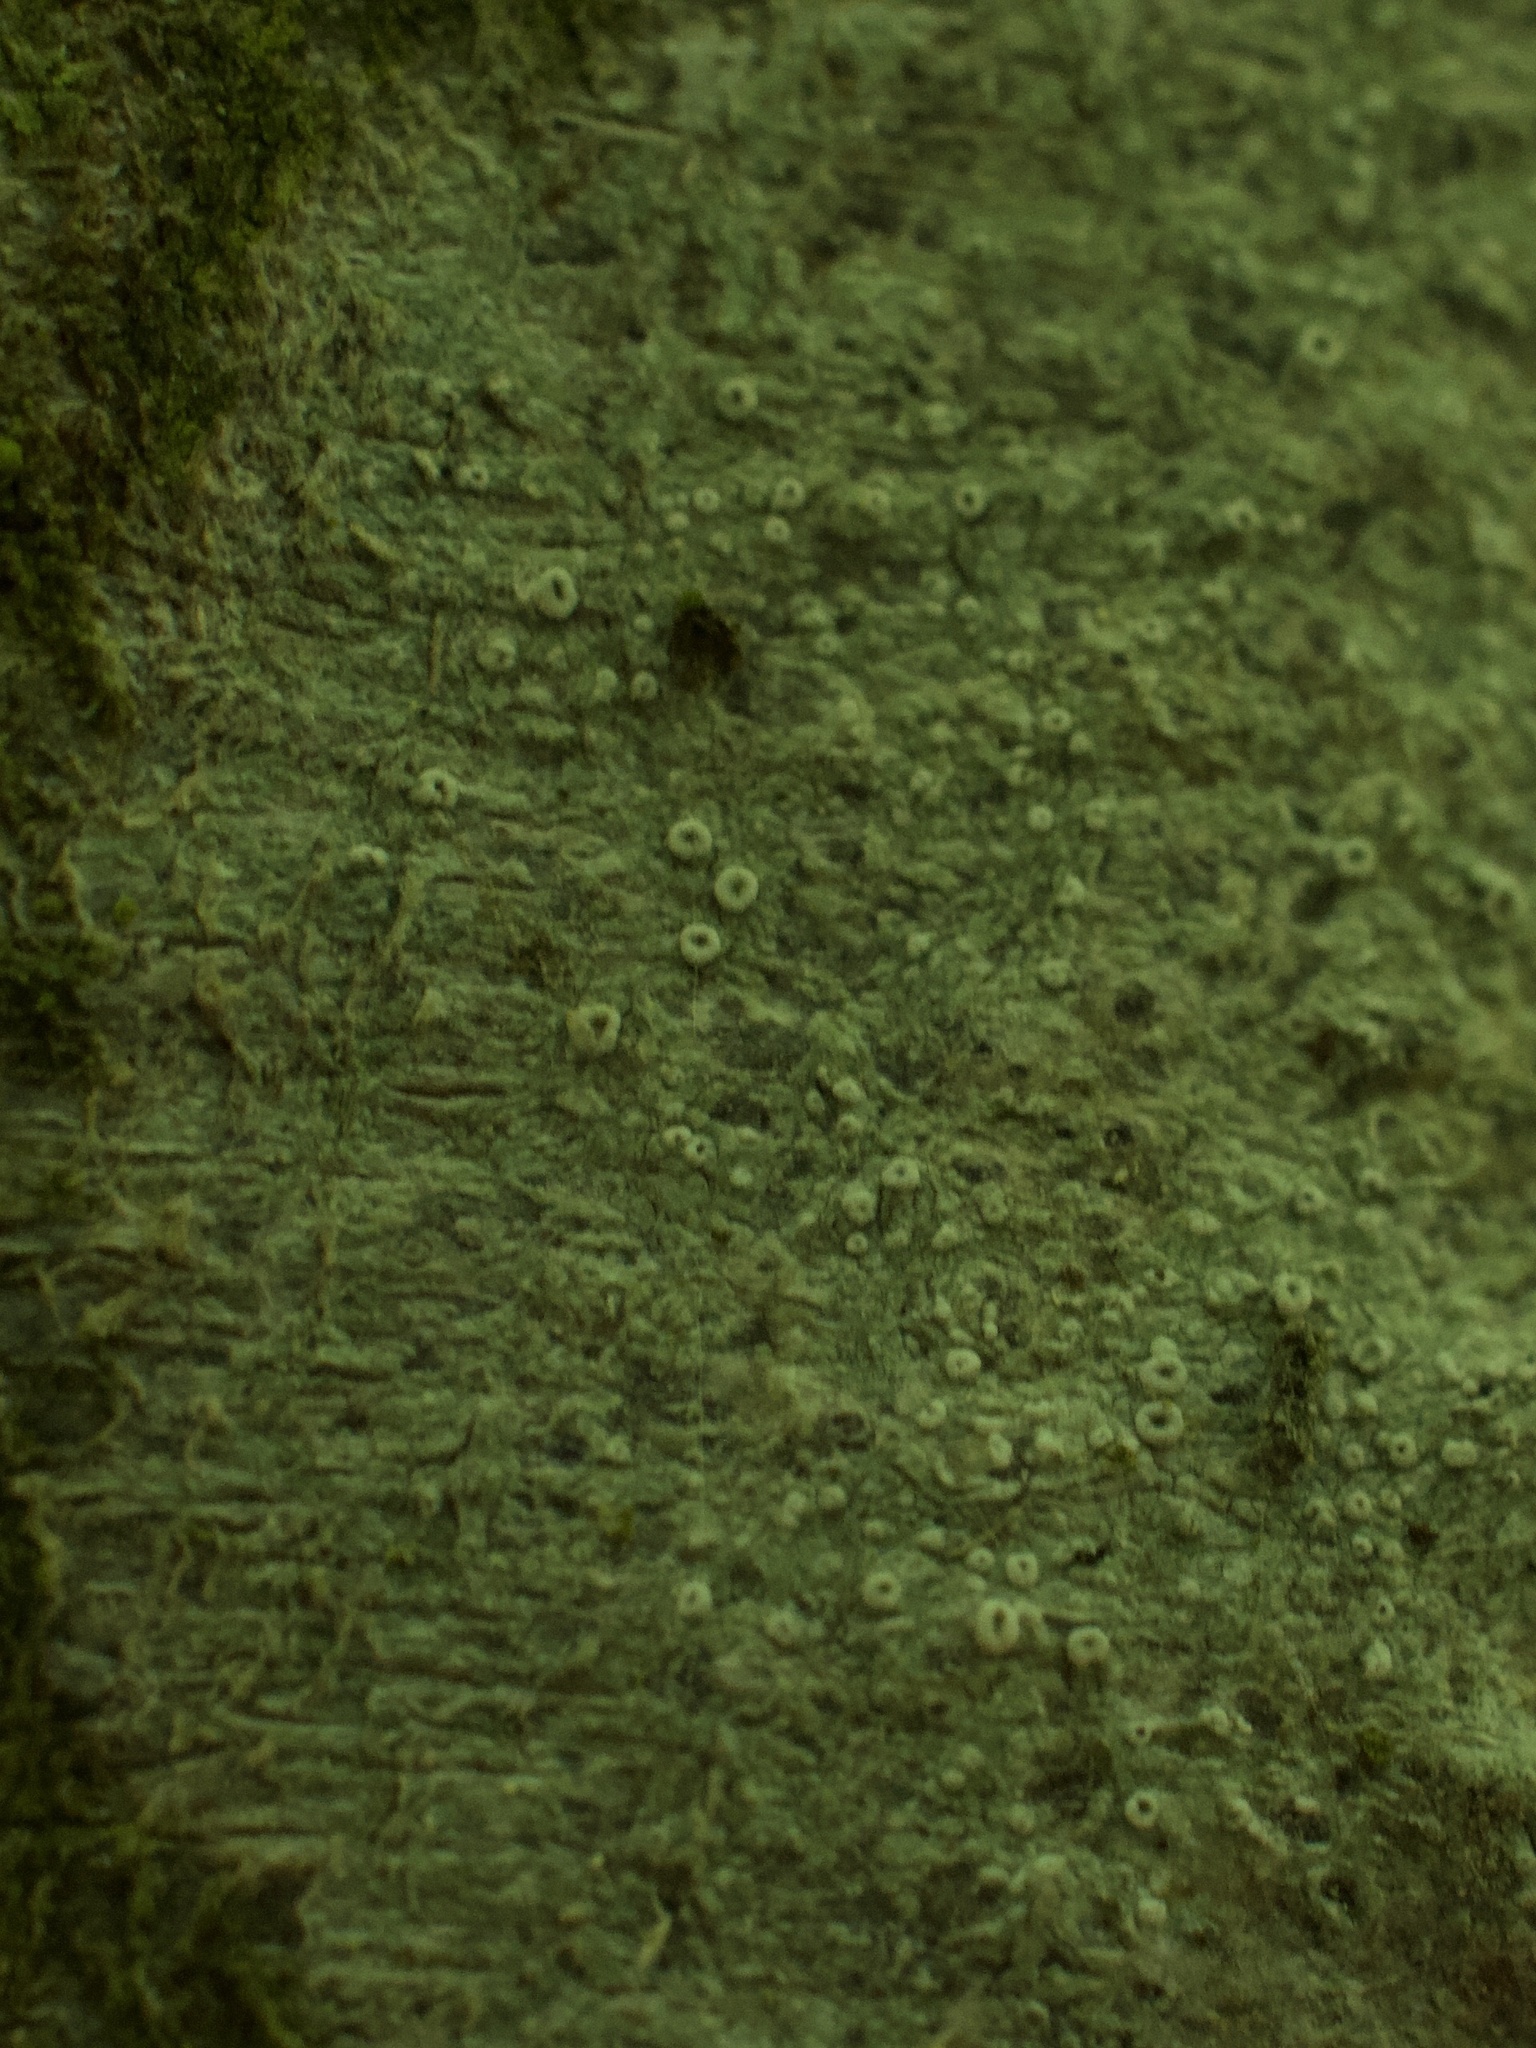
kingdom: Fungi
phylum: Ascomycota
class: Lecanoromycetes
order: Lecanorales
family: Lecanoraceae
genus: Lecanora
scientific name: Lecanora
